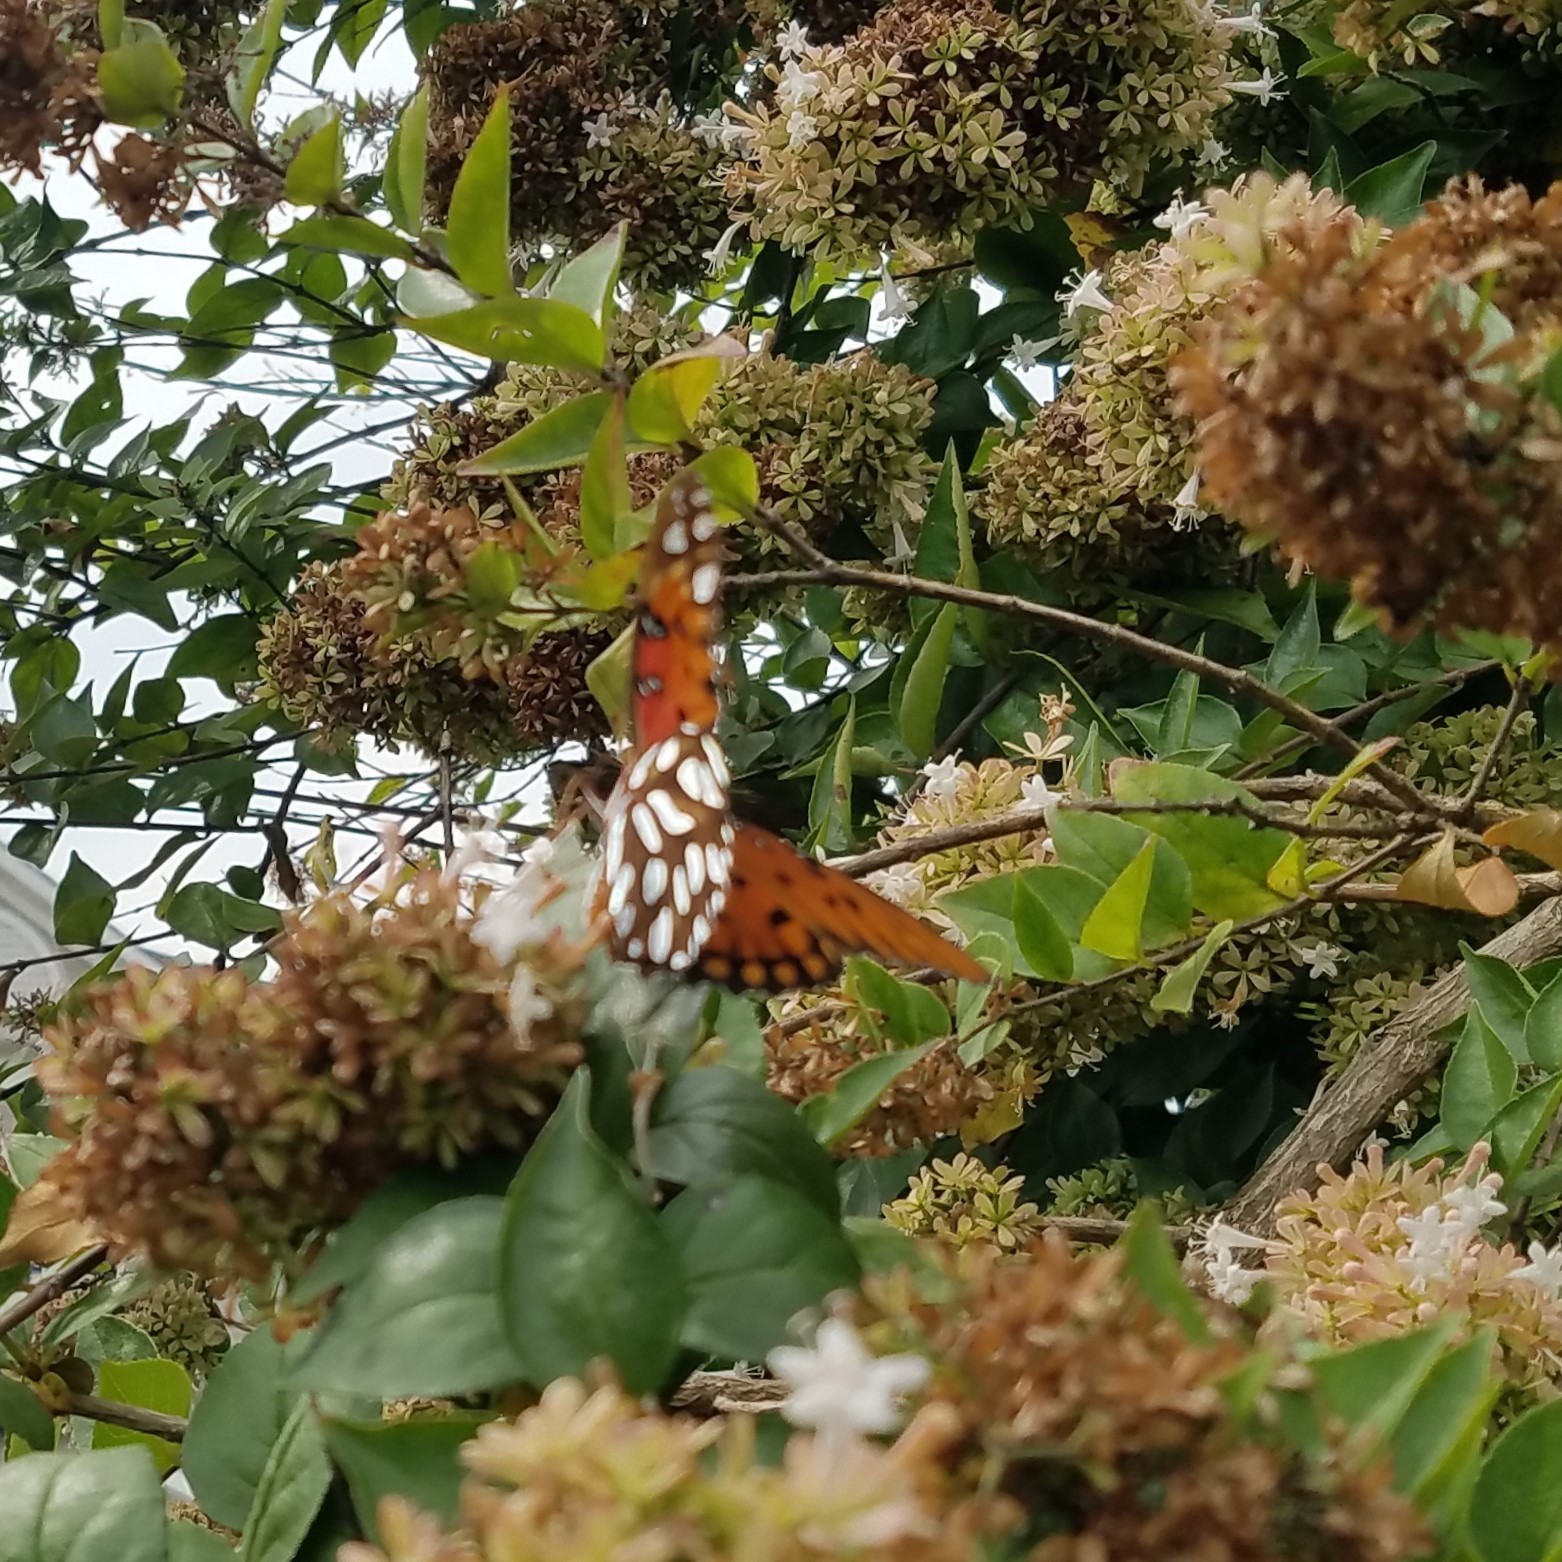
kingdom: Animalia
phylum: Arthropoda
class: Insecta
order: Lepidoptera
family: Nymphalidae
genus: Dione
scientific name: Dione vanillae
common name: Gulf fritillary
